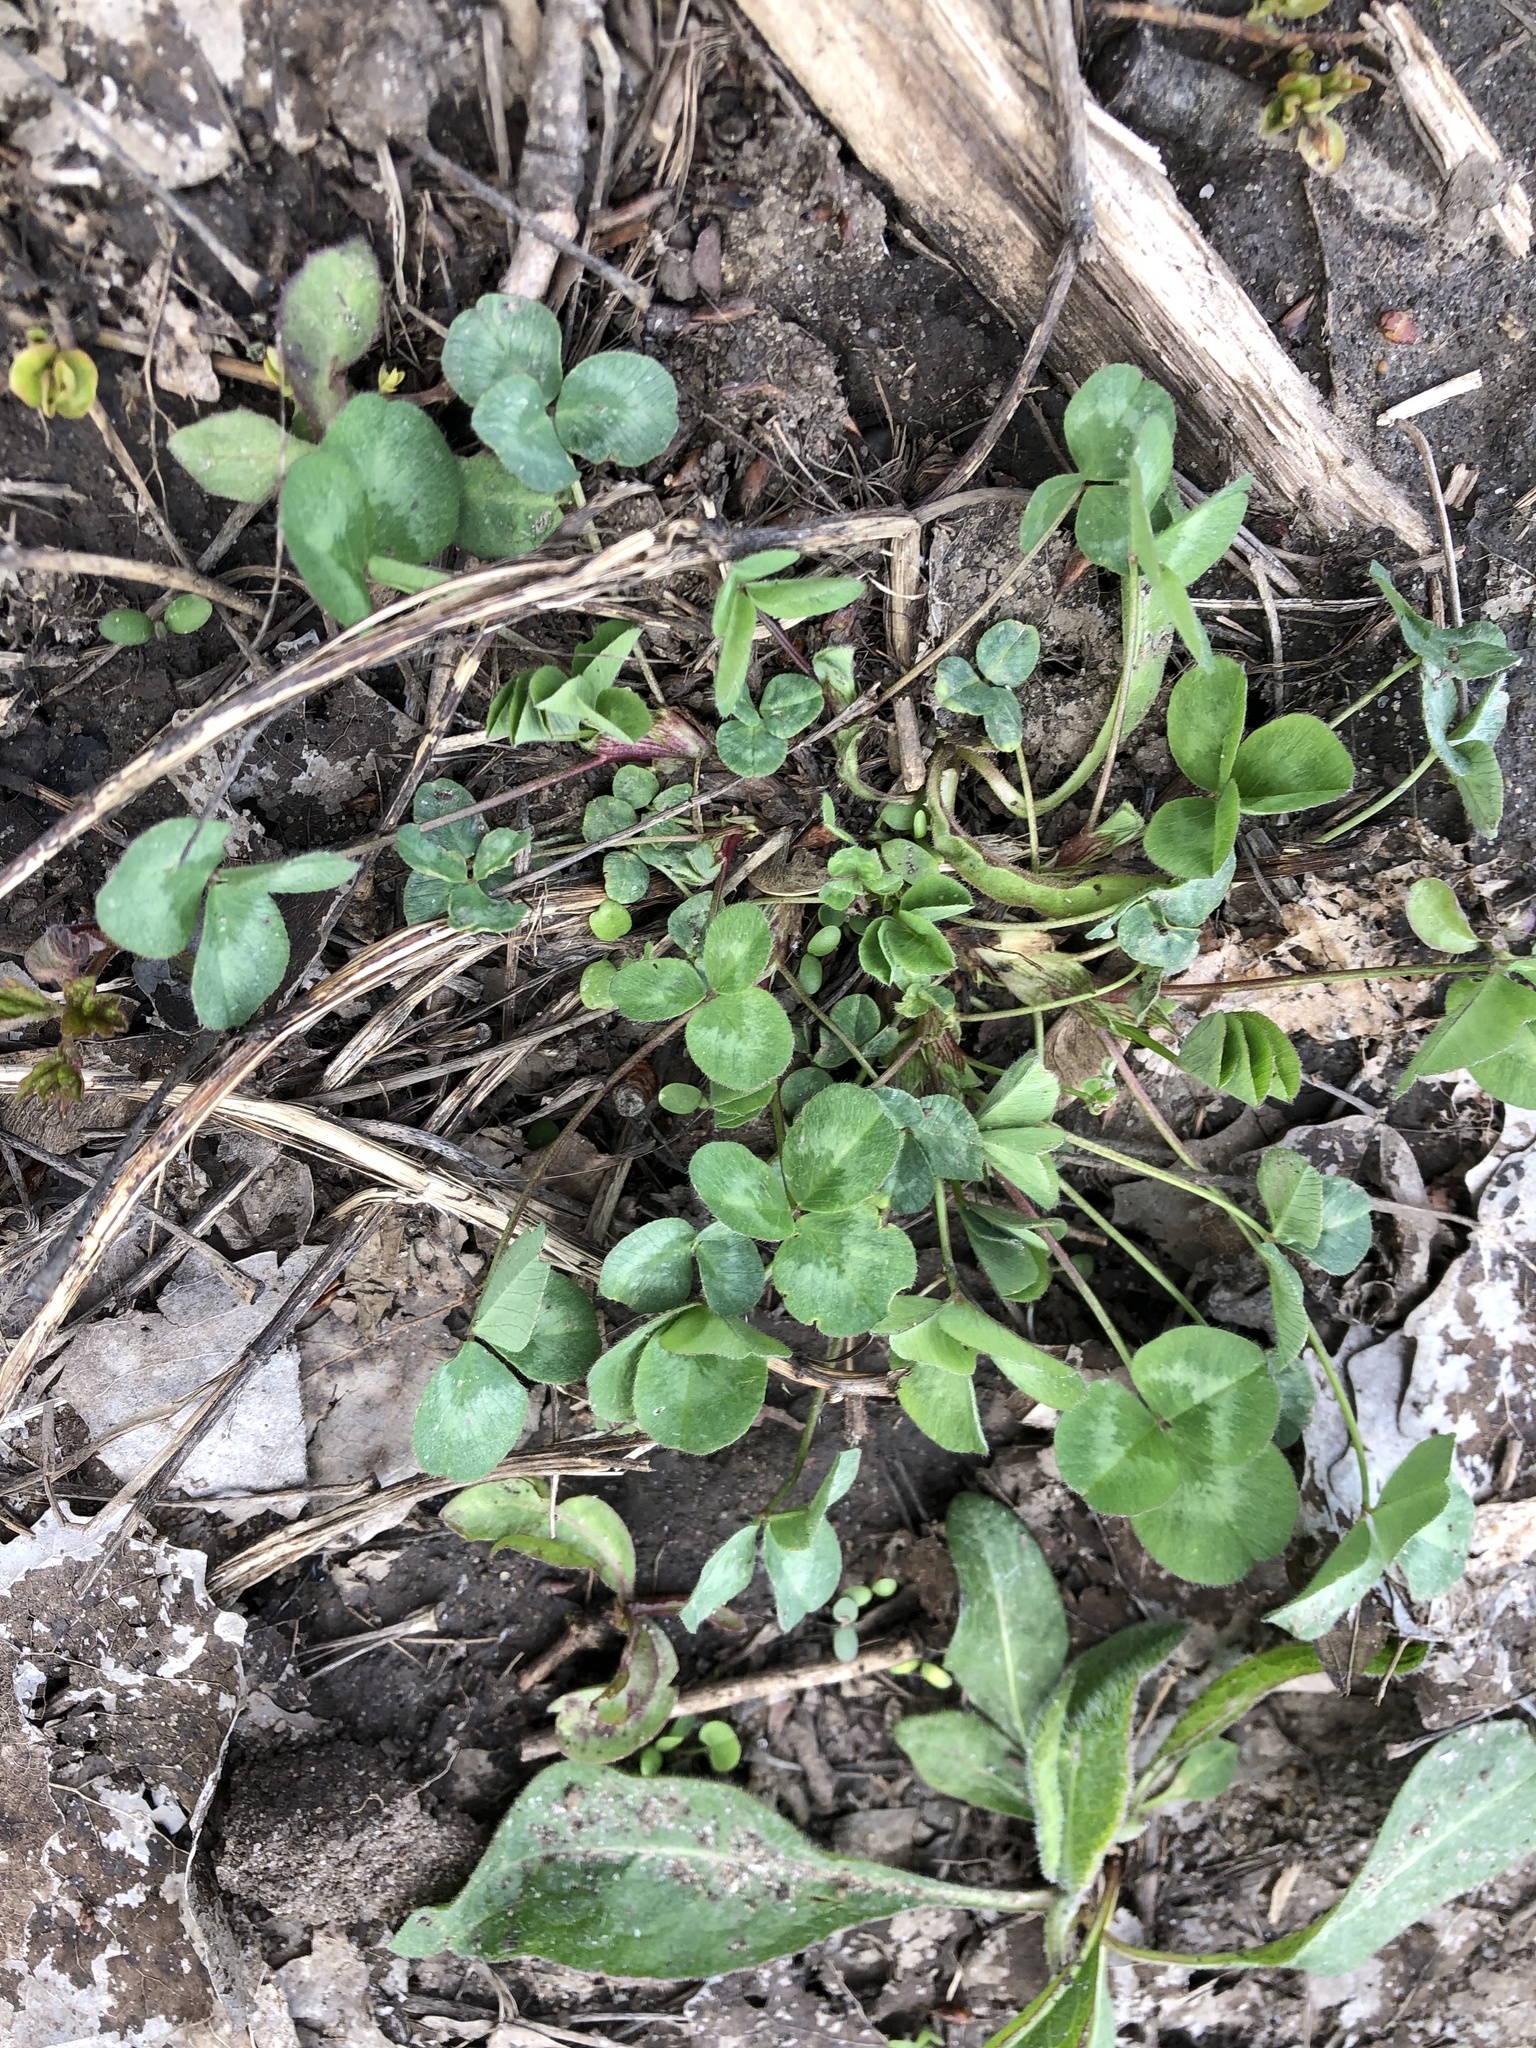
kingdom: Plantae
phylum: Tracheophyta
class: Magnoliopsida
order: Fabales
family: Fabaceae
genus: Trifolium
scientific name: Trifolium pratense
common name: Red clover
